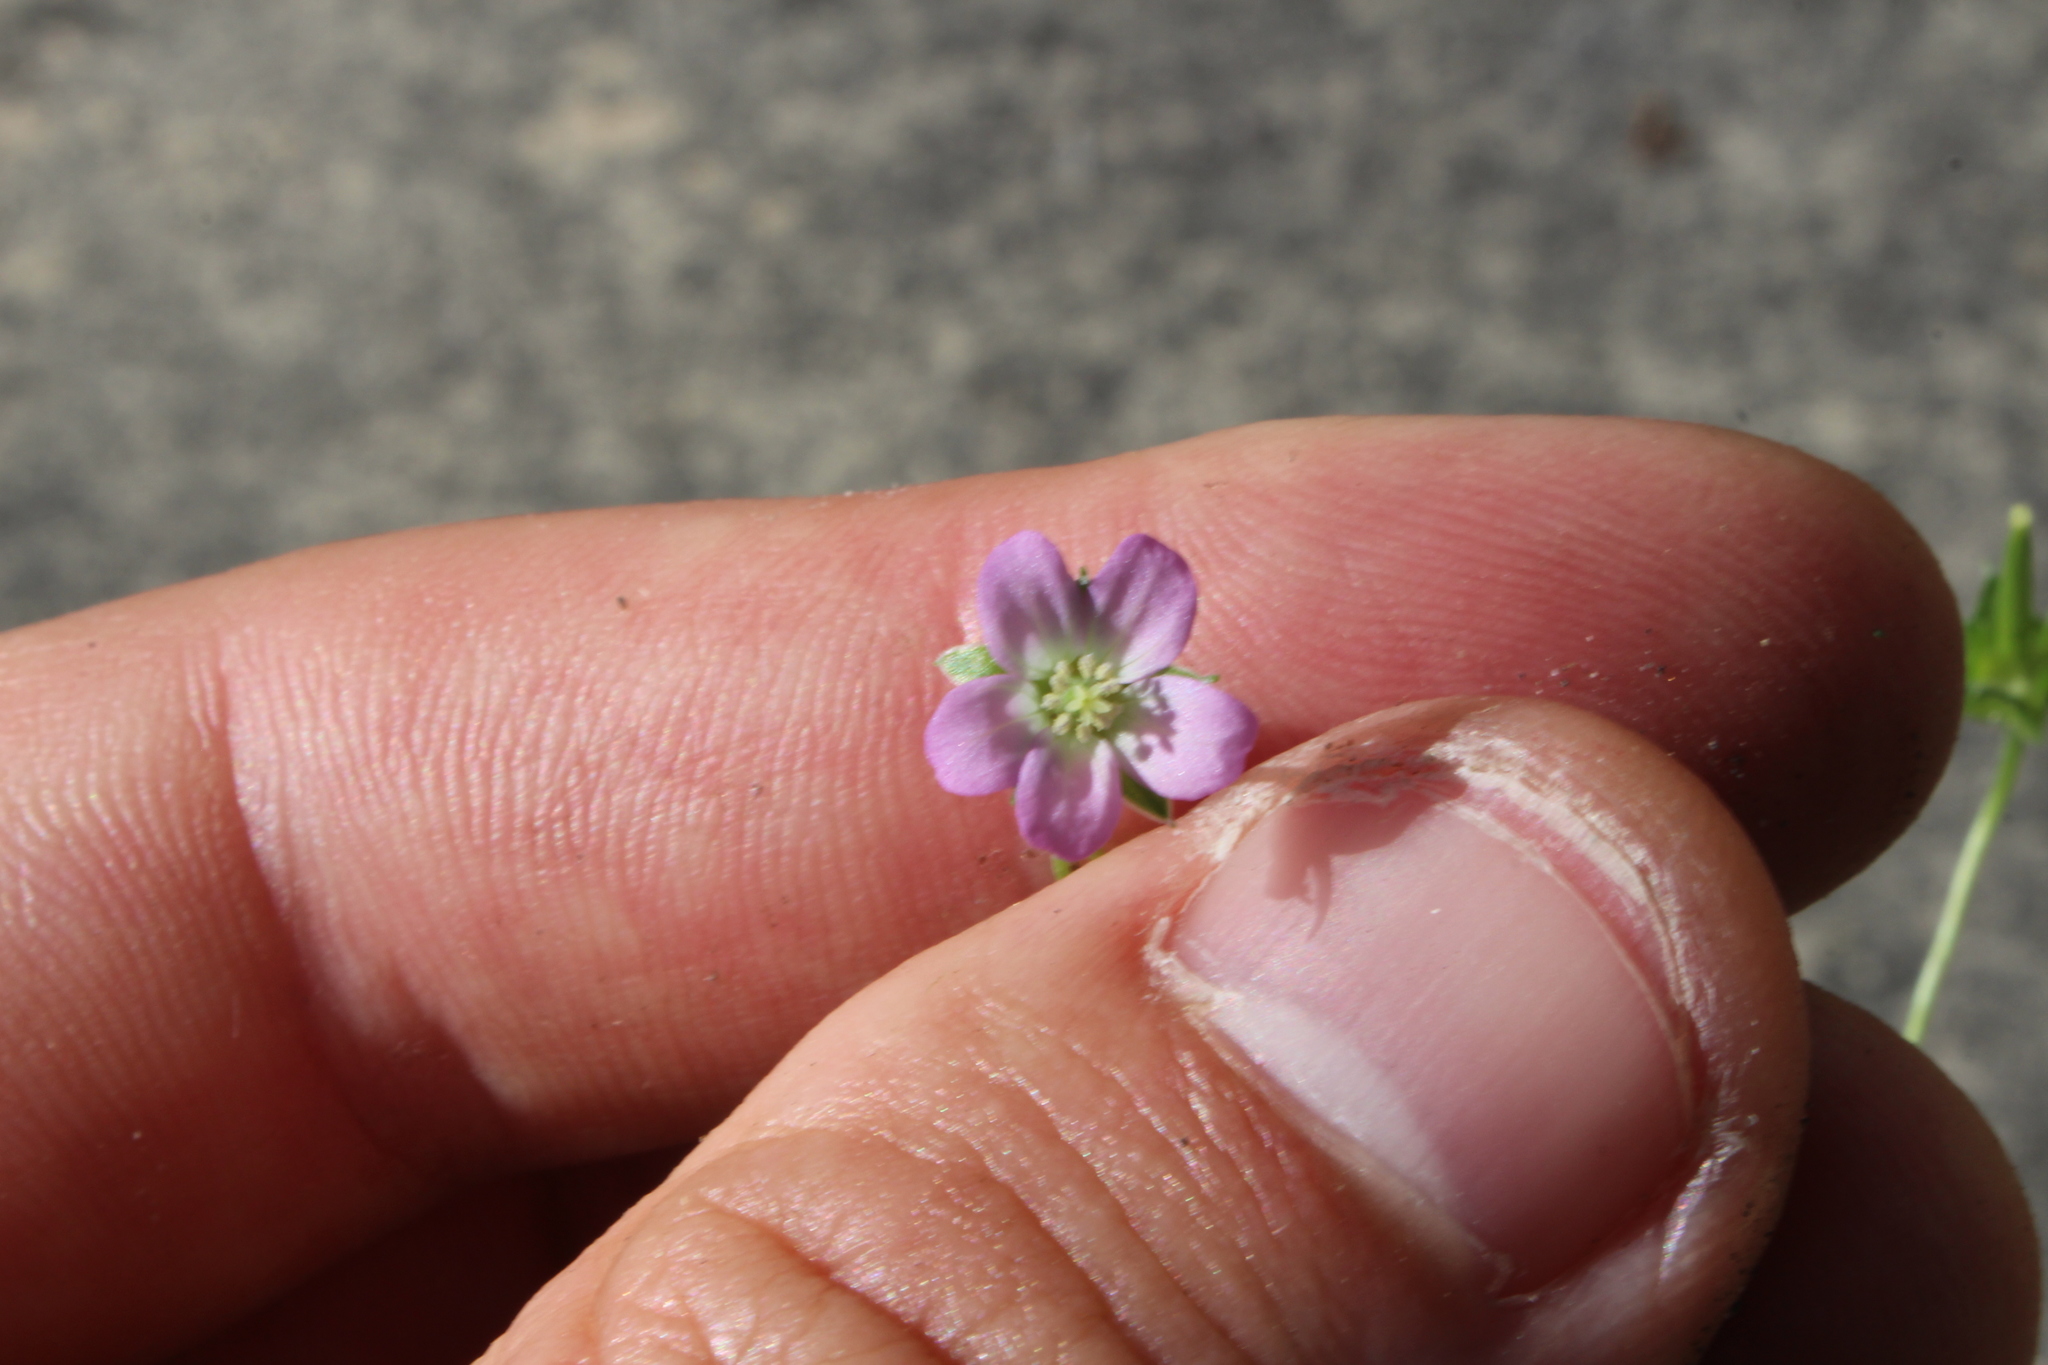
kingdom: Plantae
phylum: Tracheophyta
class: Magnoliopsida
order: Geraniales
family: Geraniaceae
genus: Geranium
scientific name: Geranium retrorsum
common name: New zealand geranium
